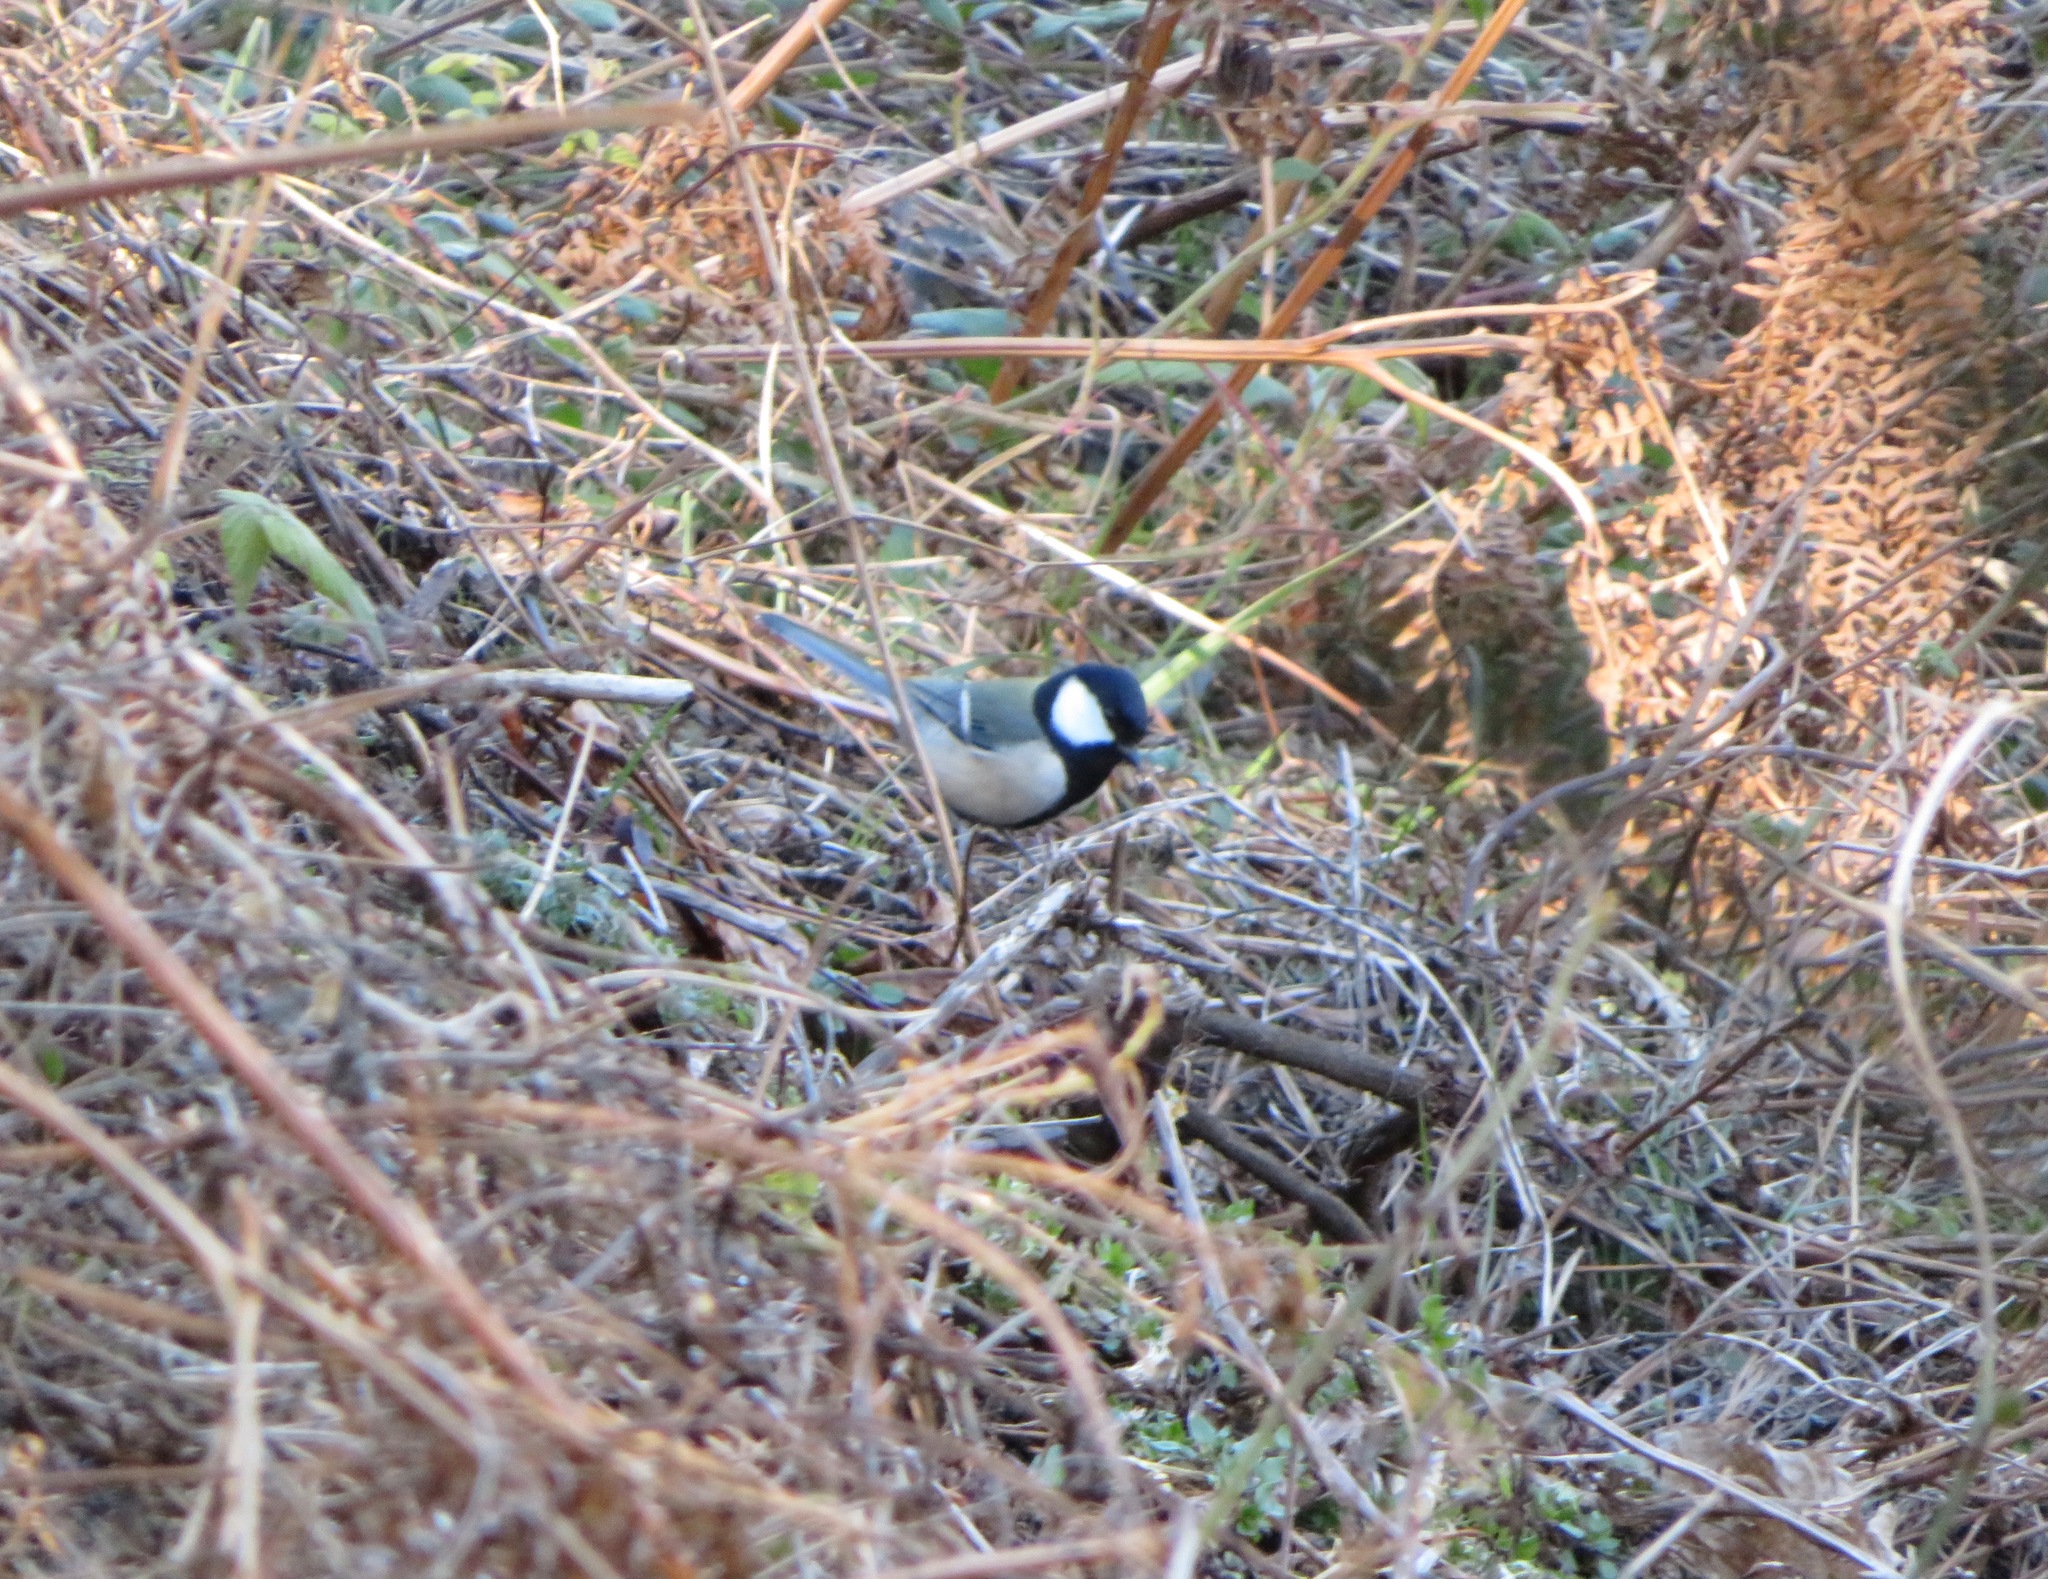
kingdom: Animalia
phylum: Chordata
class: Aves
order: Passeriformes
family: Paridae
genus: Parus
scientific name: Parus minor
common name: Japanese tit
